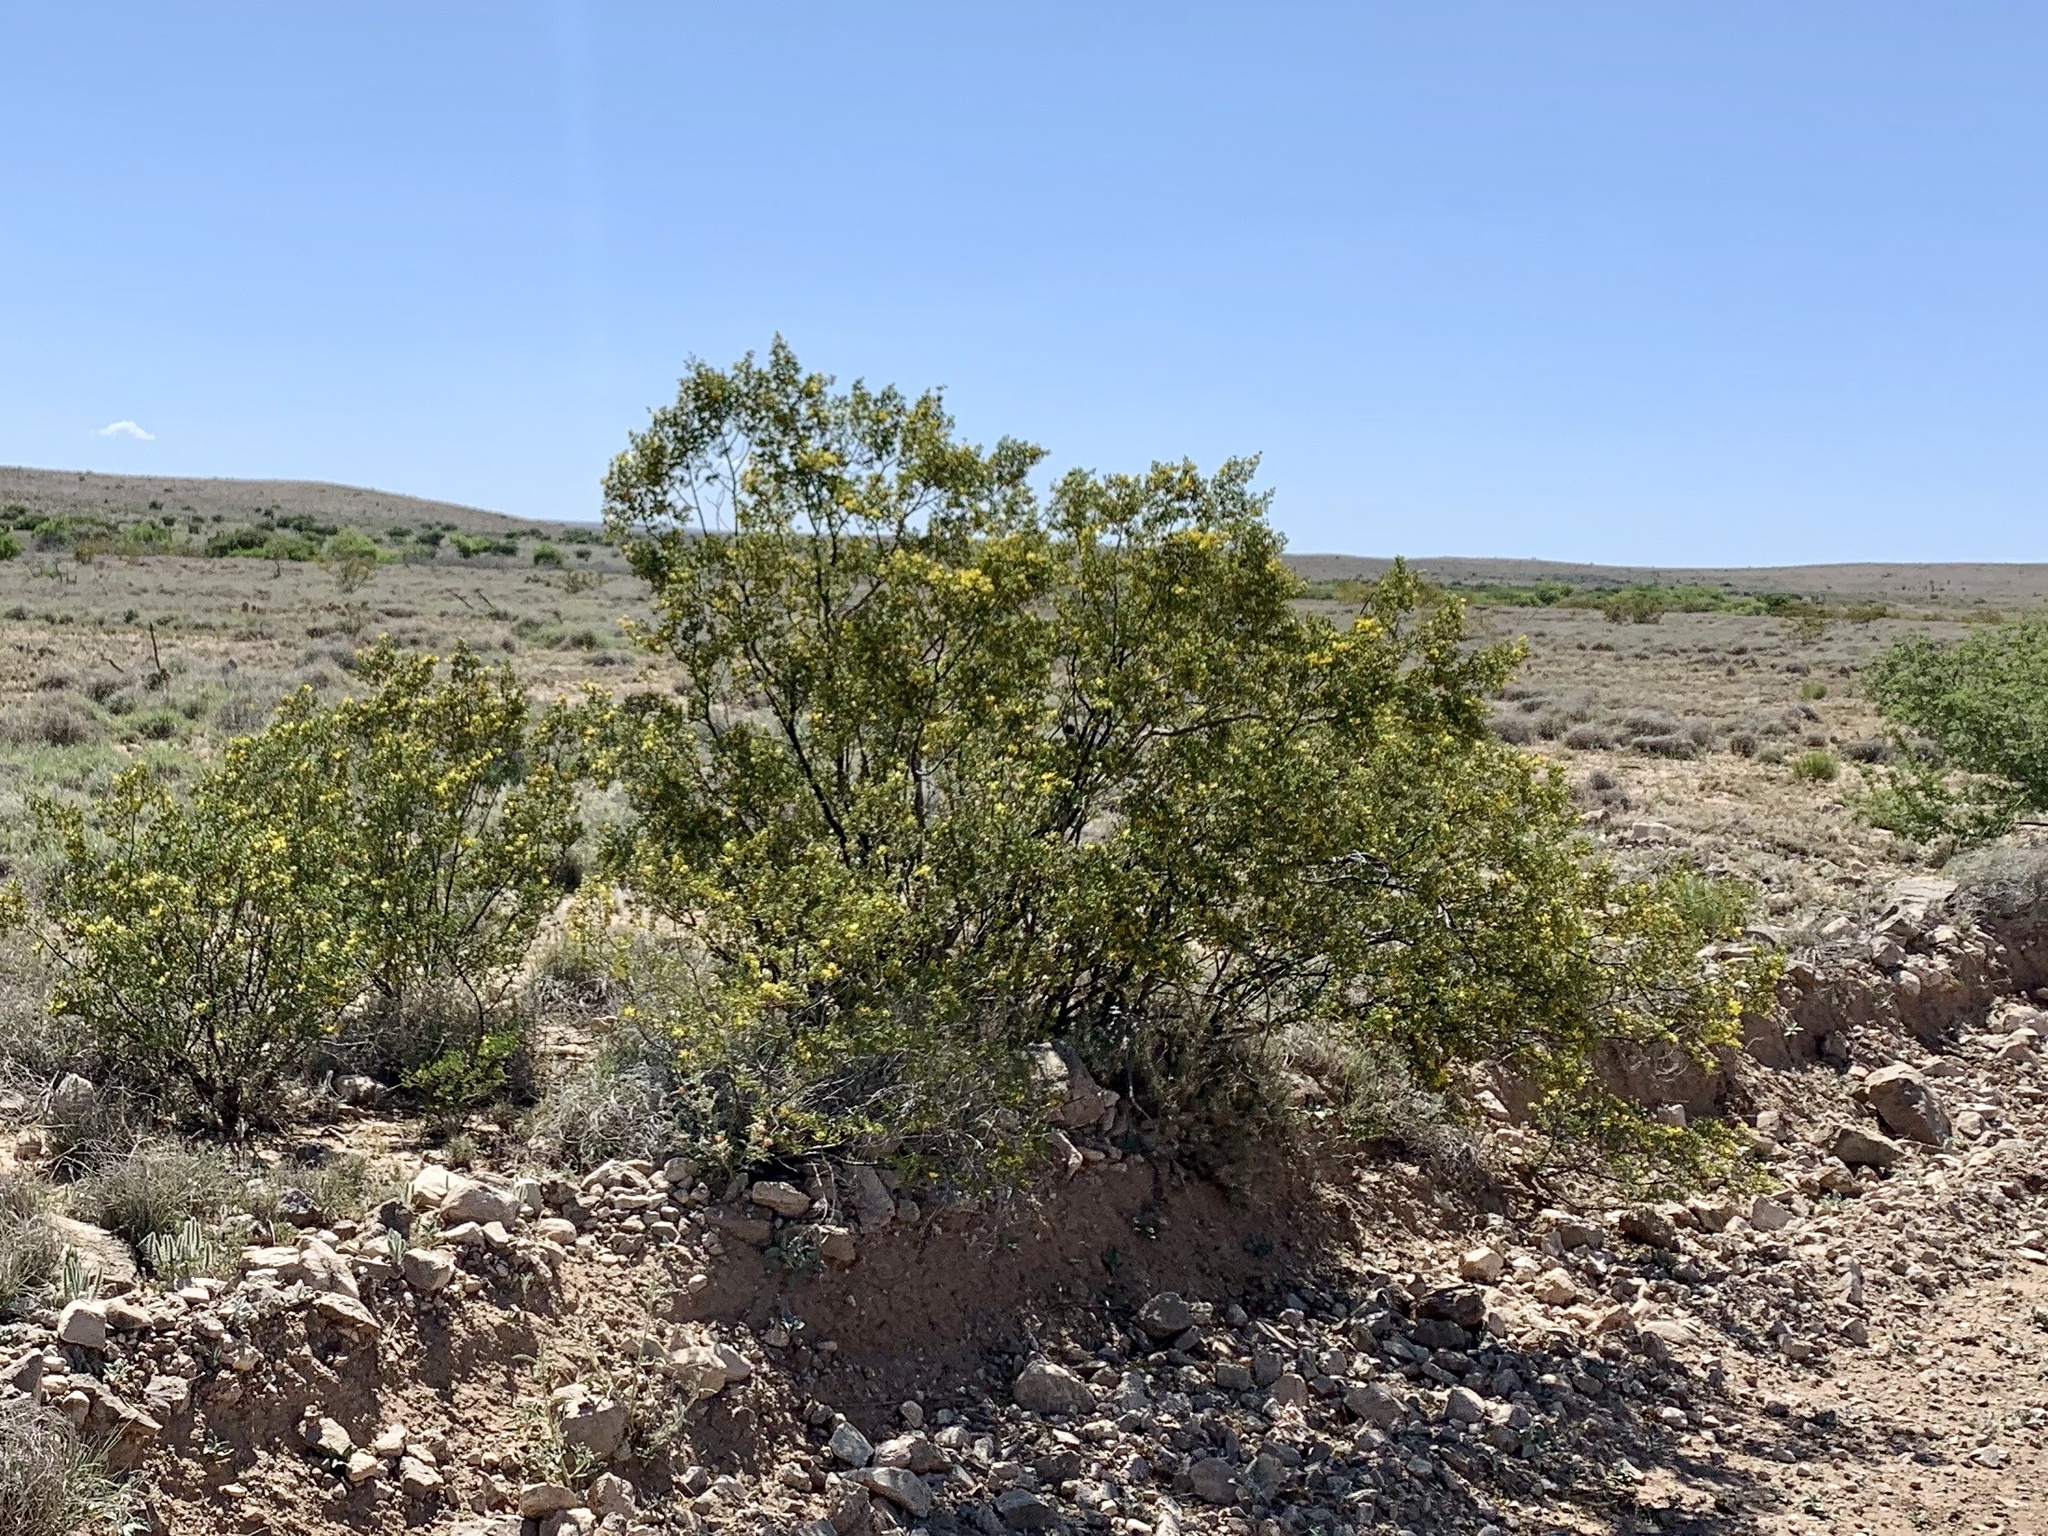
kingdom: Plantae
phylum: Tracheophyta
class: Magnoliopsida
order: Zygophyllales
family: Zygophyllaceae
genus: Larrea
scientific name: Larrea tridentata
